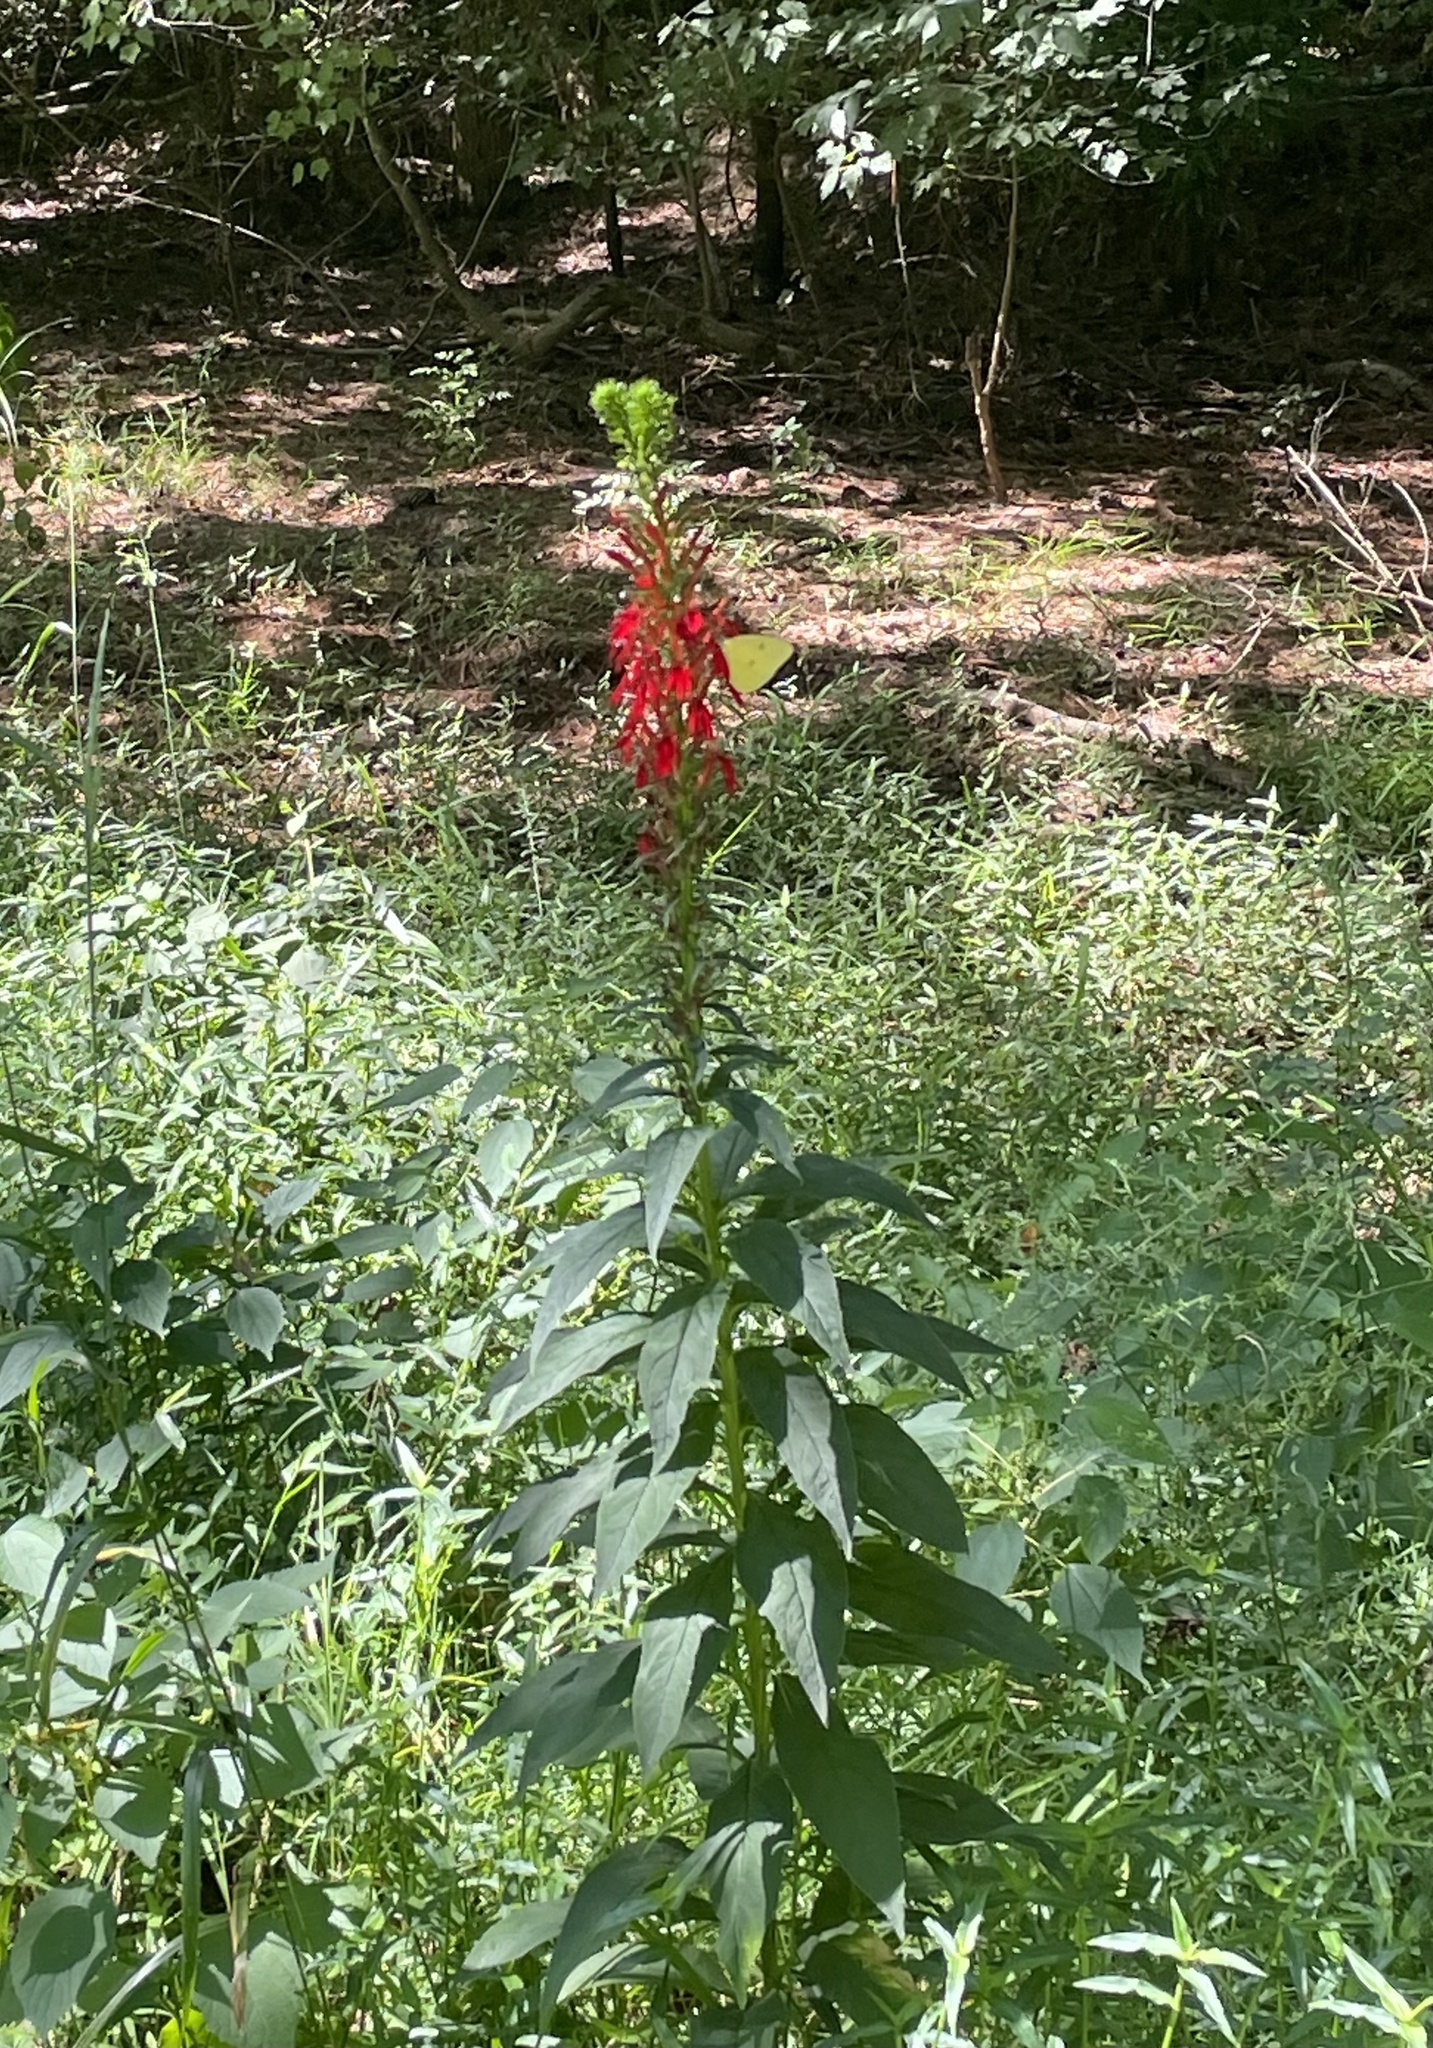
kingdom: Plantae
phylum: Tracheophyta
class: Magnoliopsida
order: Asterales
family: Campanulaceae
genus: Lobelia
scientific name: Lobelia cardinalis
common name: Cardinal flower
